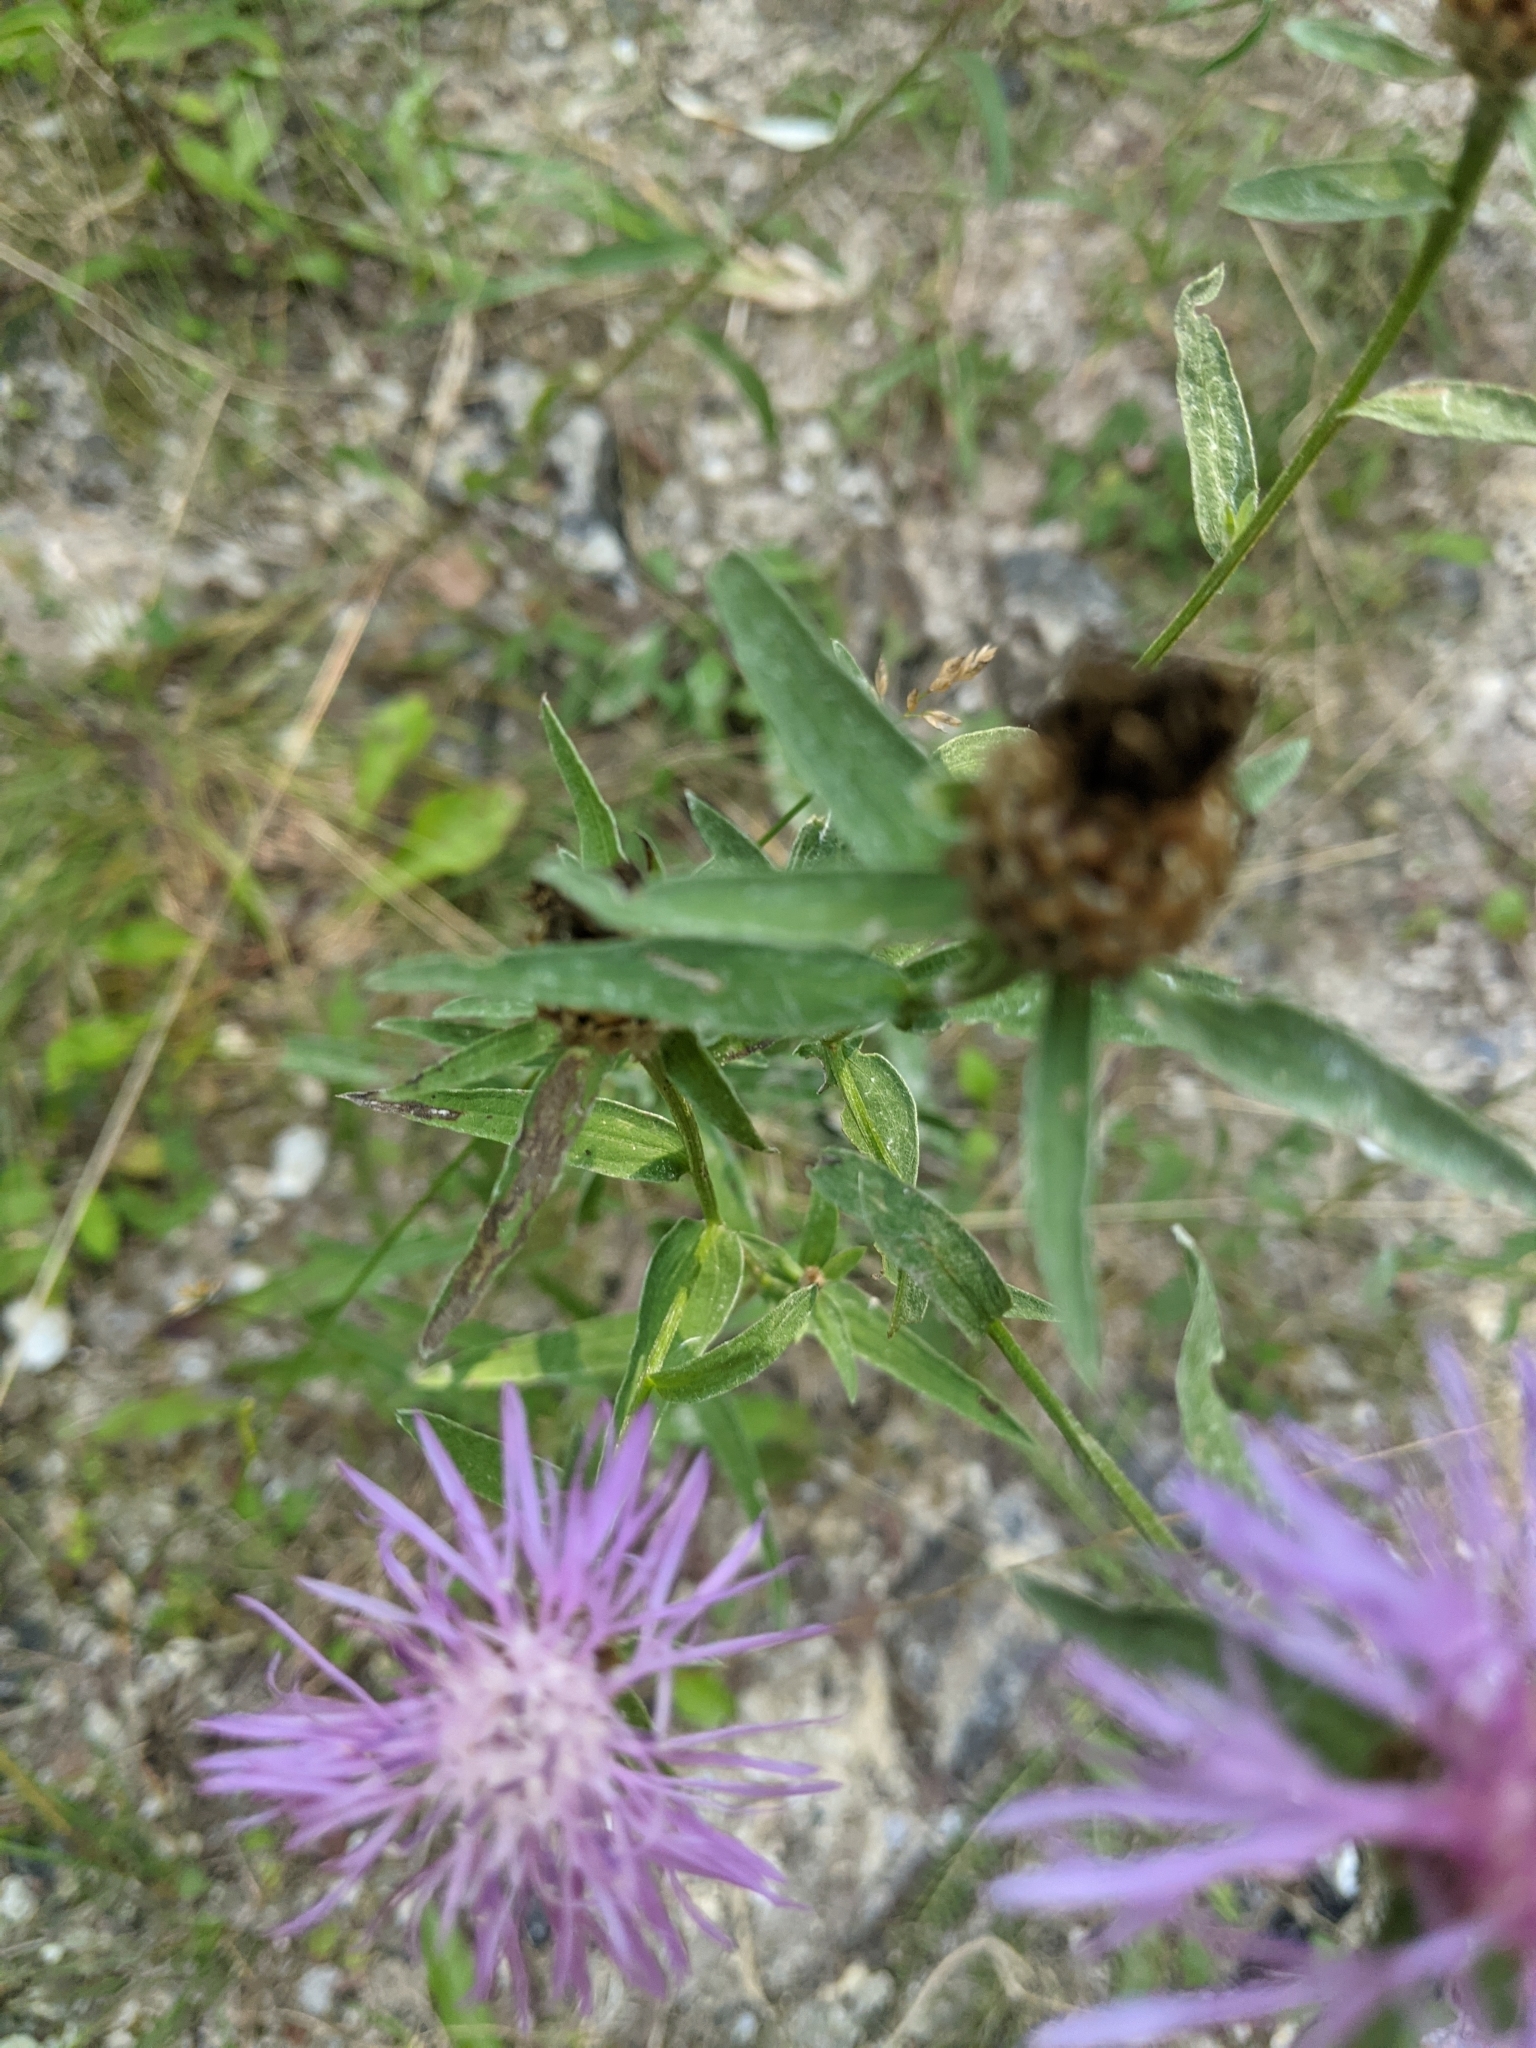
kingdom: Plantae
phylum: Tracheophyta
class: Magnoliopsida
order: Asterales
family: Asteraceae
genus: Centaurea
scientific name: Centaurea jacea
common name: Brown knapweed
